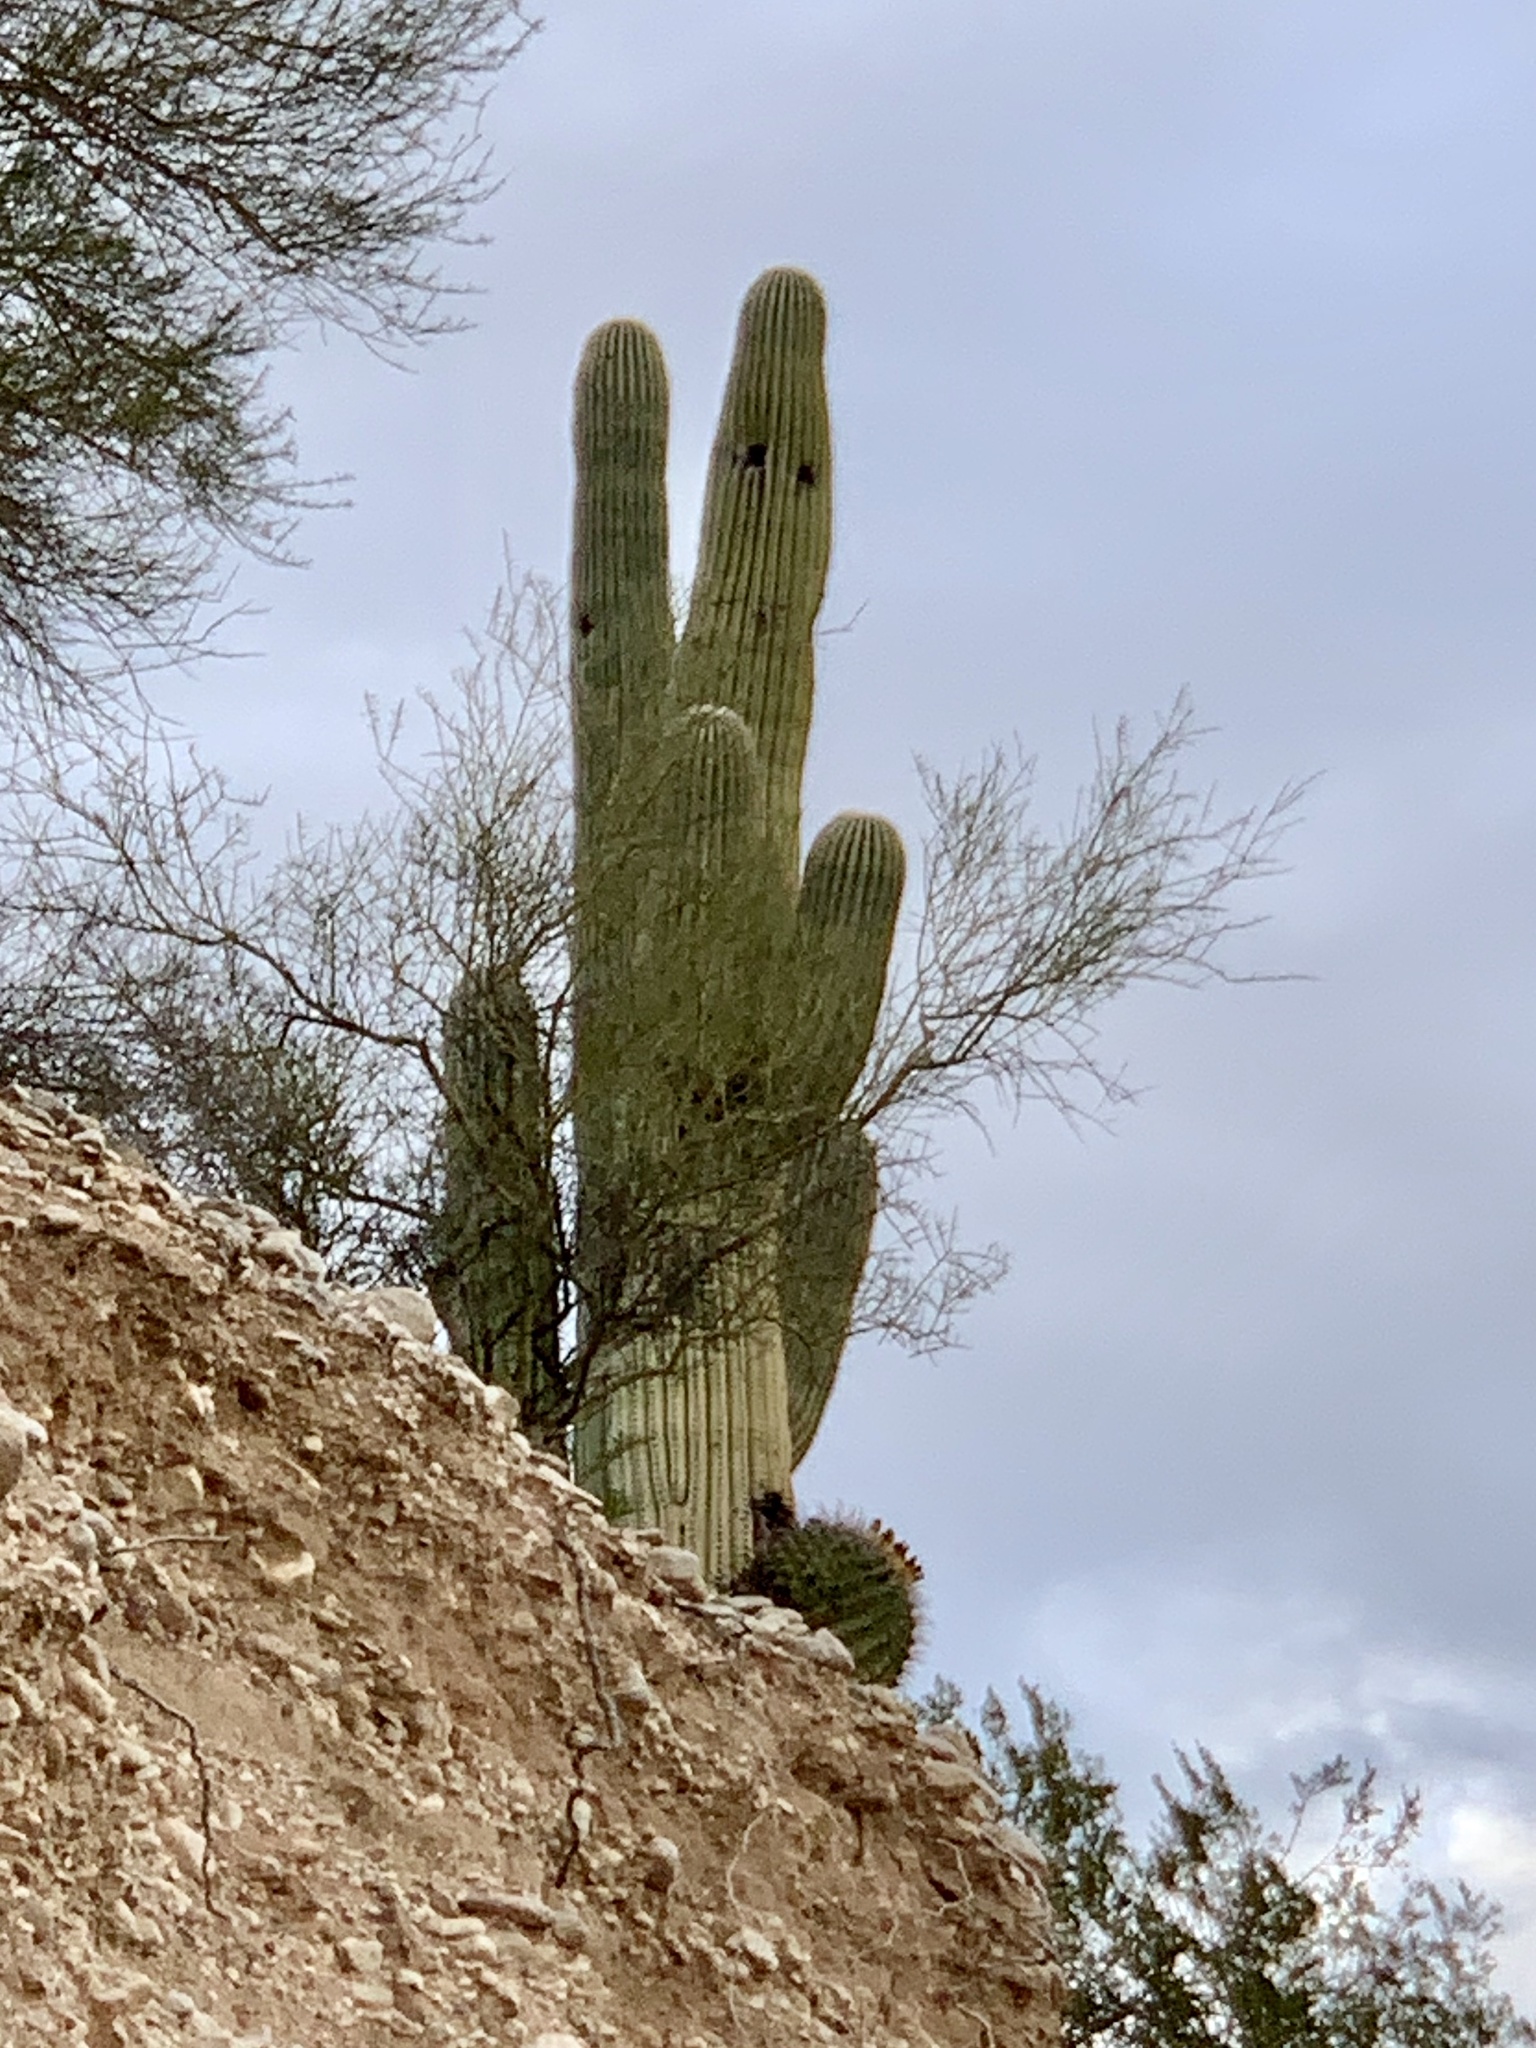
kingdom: Plantae
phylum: Tracheophyta
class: Magnoliopsida
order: Caryophyllales
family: Cactaceae
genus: Carnegiea
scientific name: Carnegiea gigantea
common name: Saguaro
